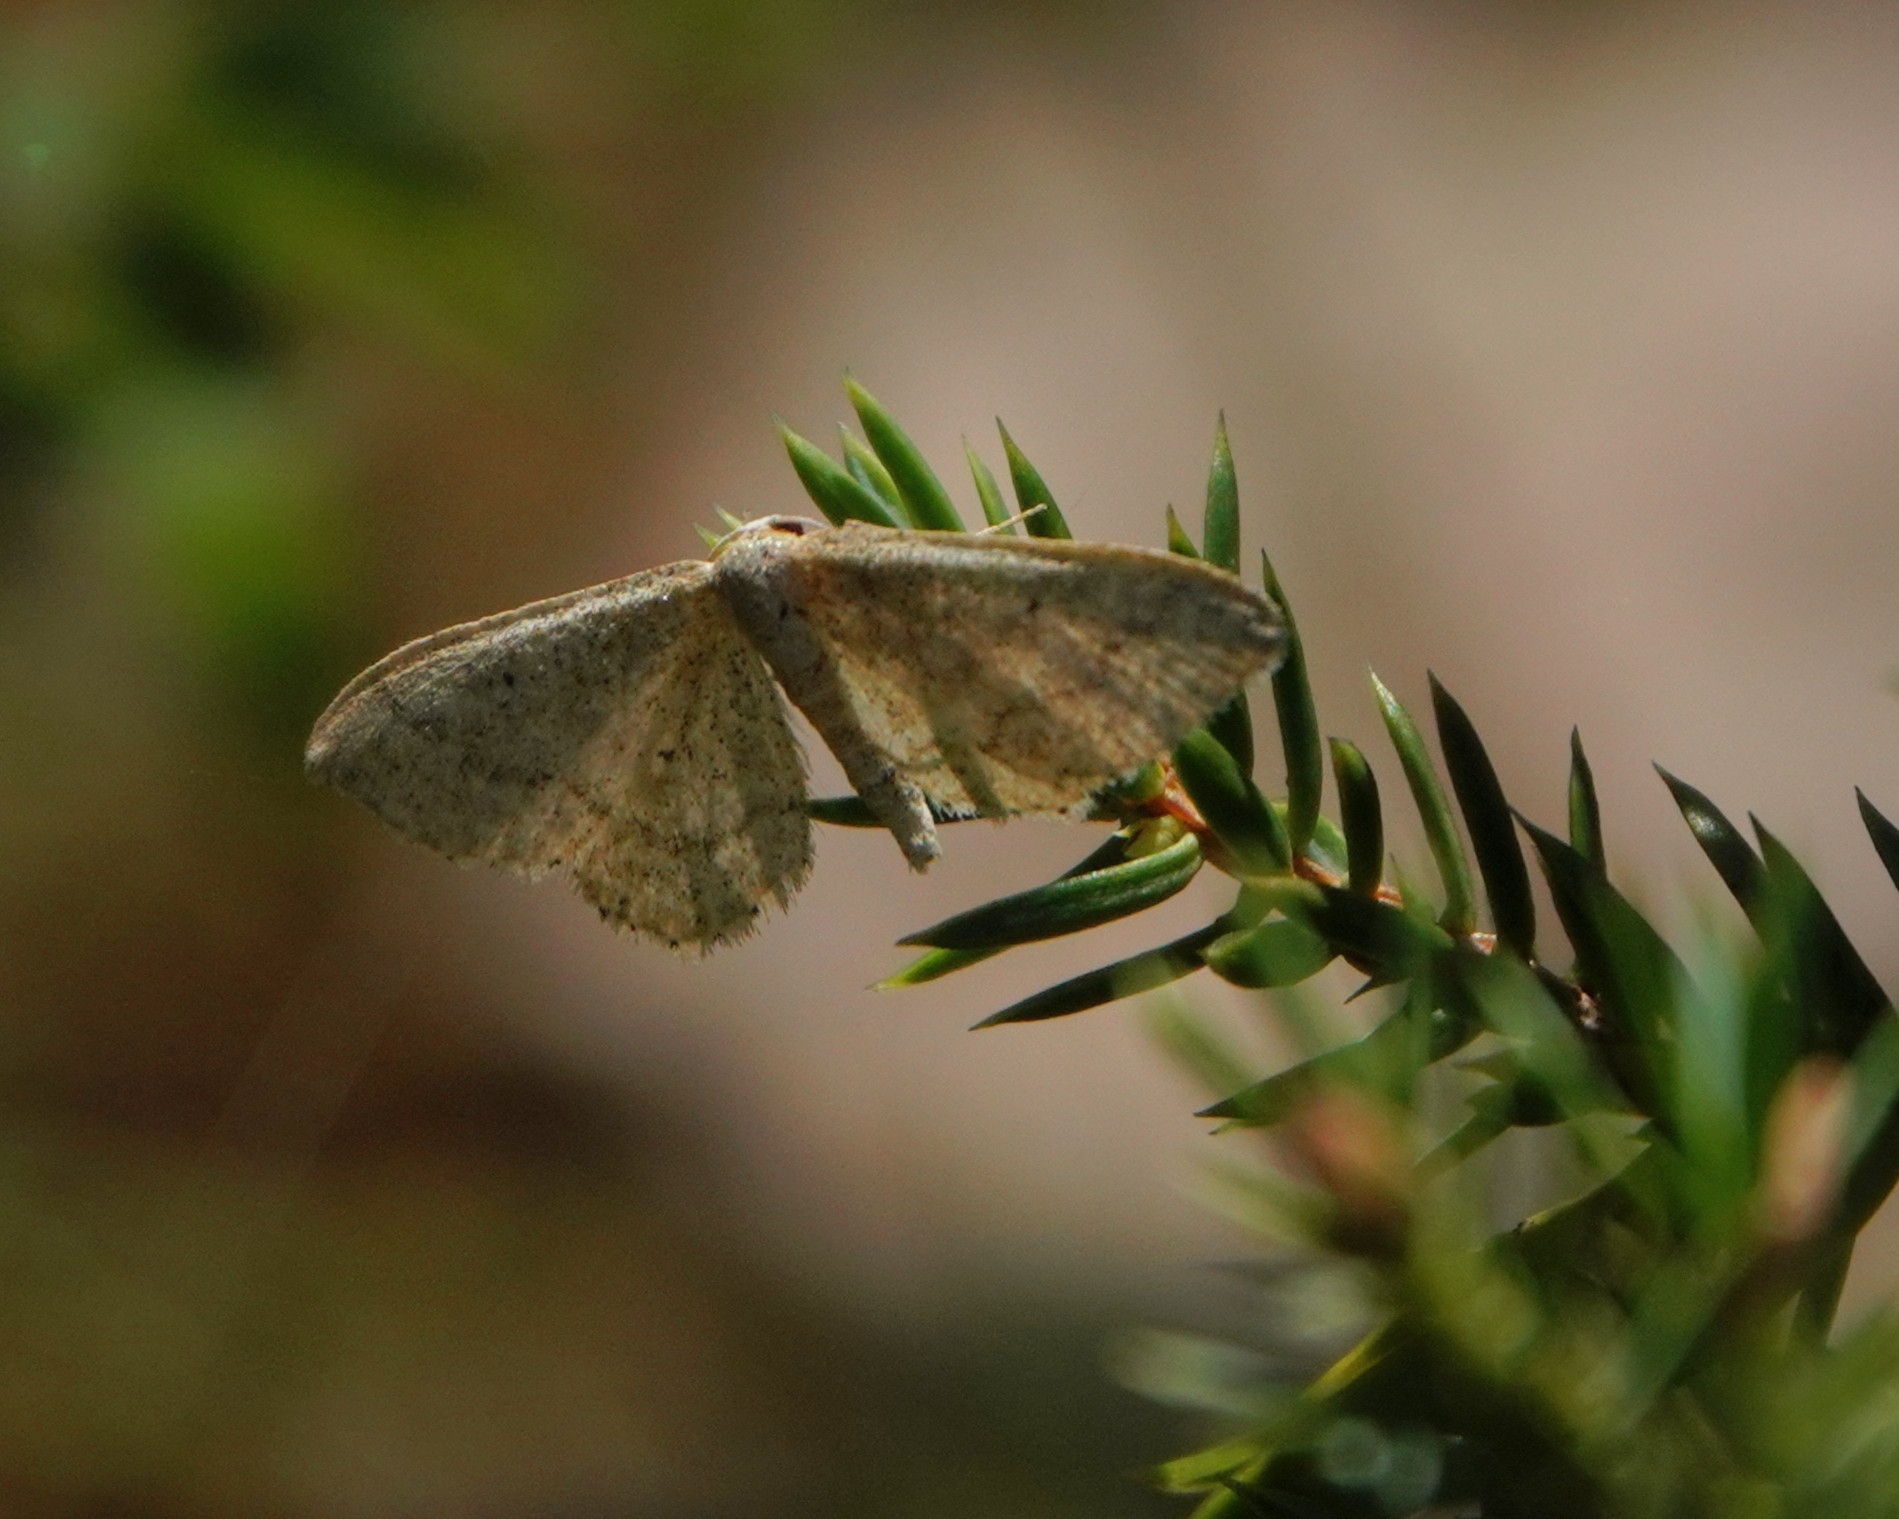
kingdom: Animalia
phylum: Arthropoda
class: Insecta
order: Lepidoptera
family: Geometridae
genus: Scopula
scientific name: Scopula ternata
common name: Smoky wave
